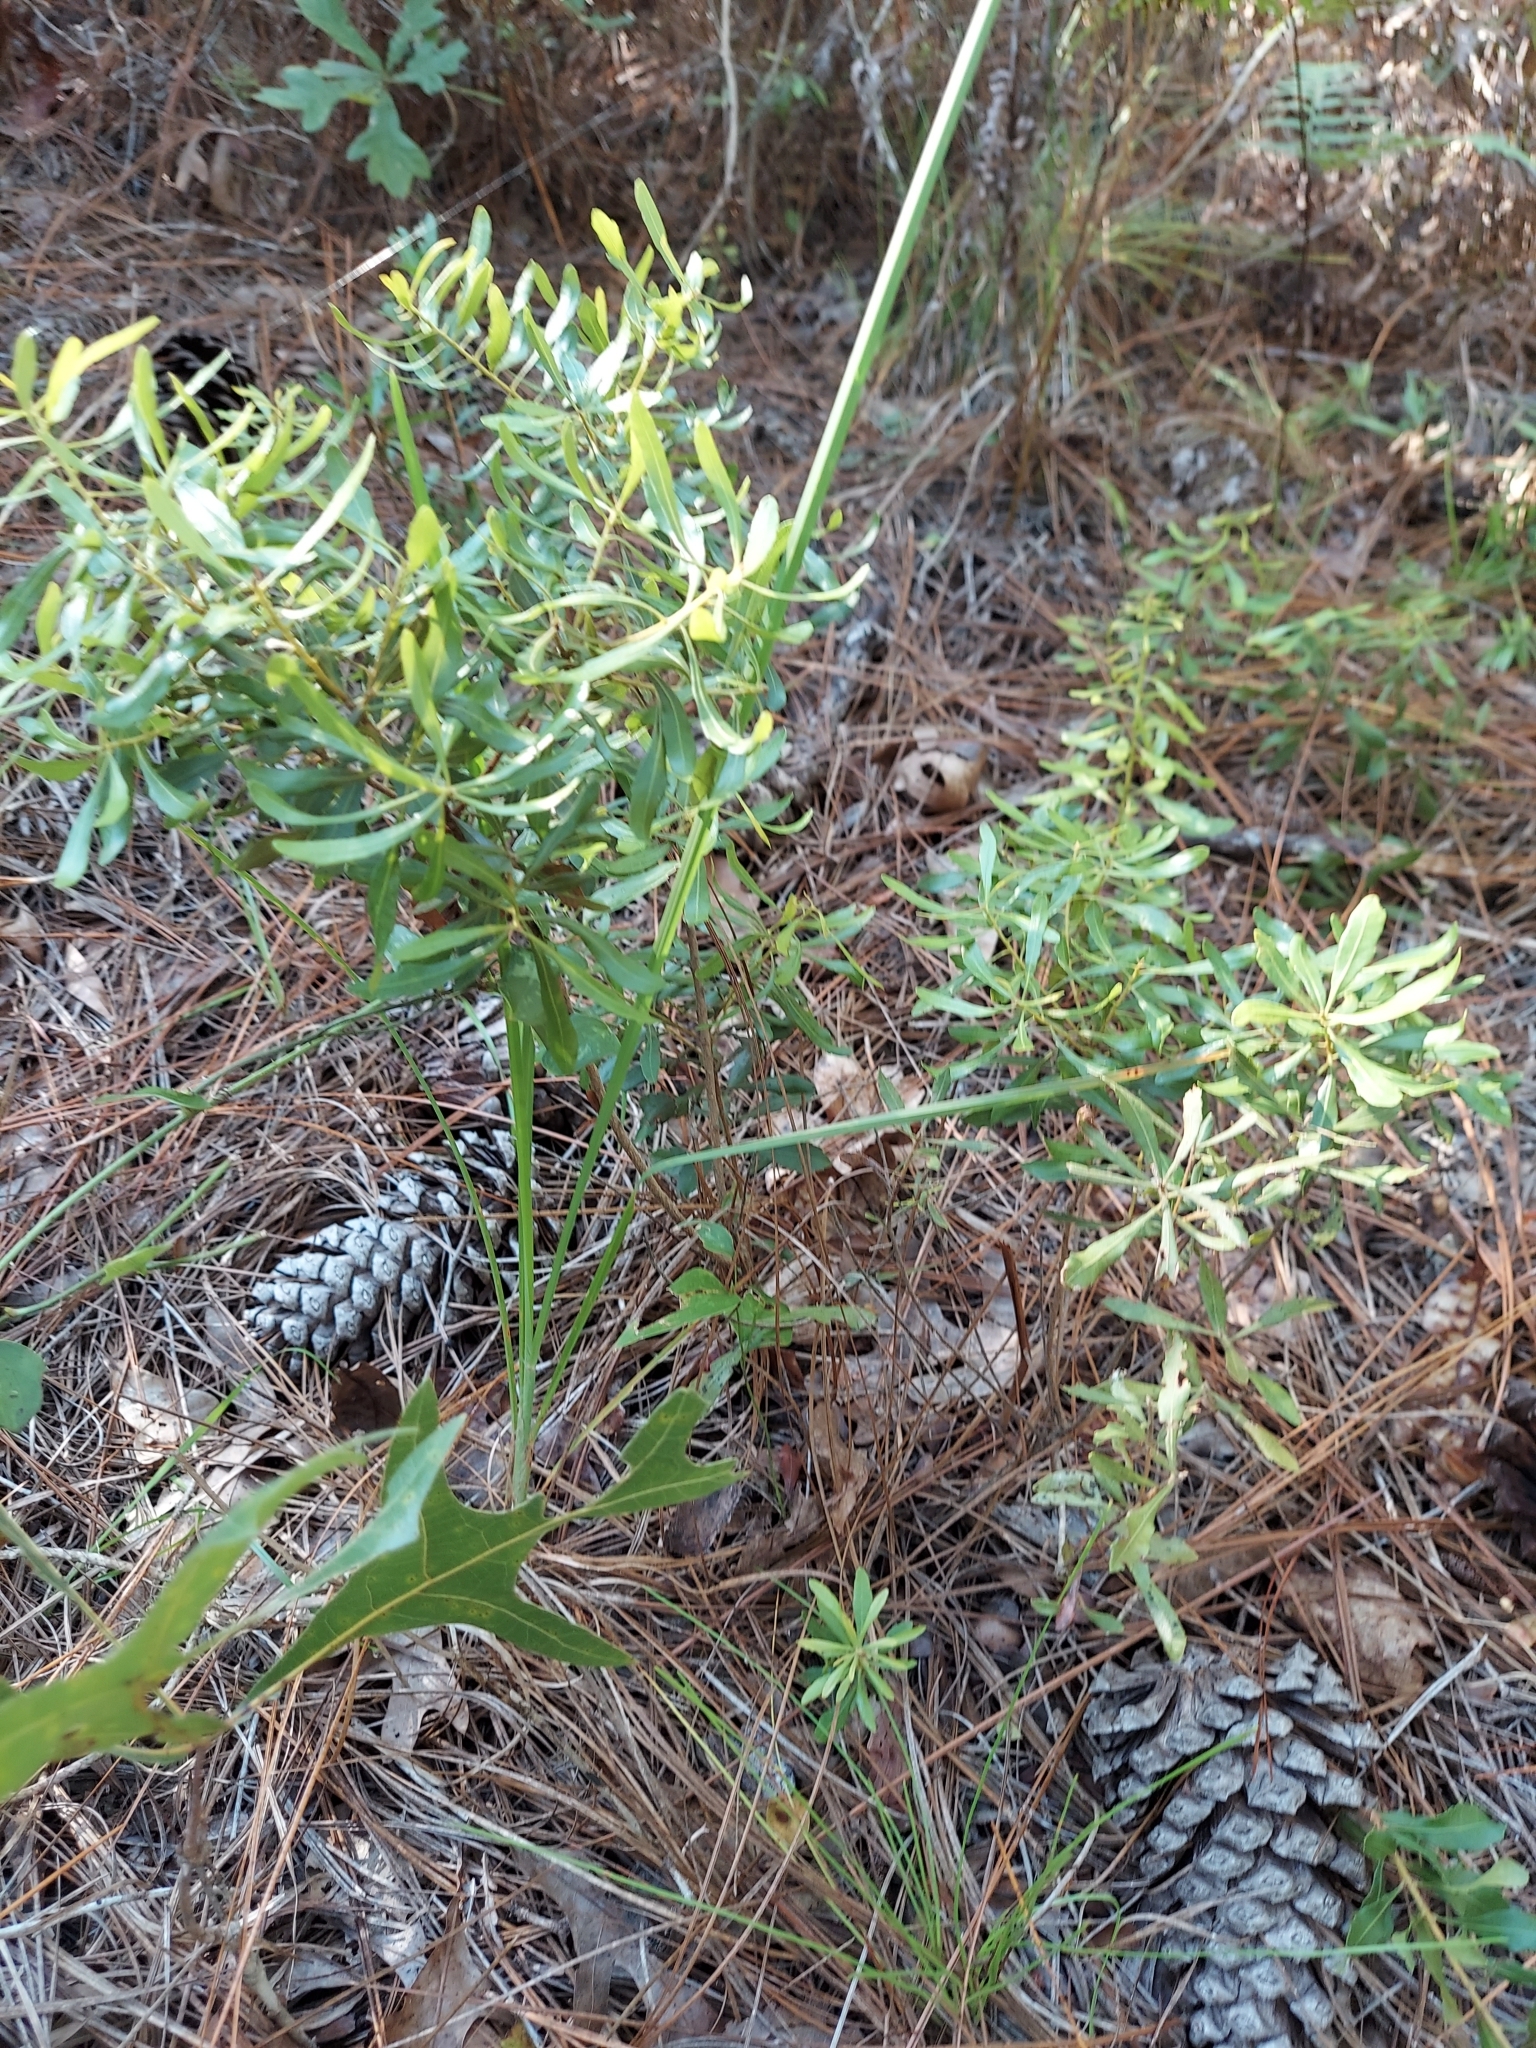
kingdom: Plantae
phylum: Tracheophyta
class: Magnoliopsida
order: Fagales
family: Myricaceae
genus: Morella
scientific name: Morella cerifera
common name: Wax myrtle
